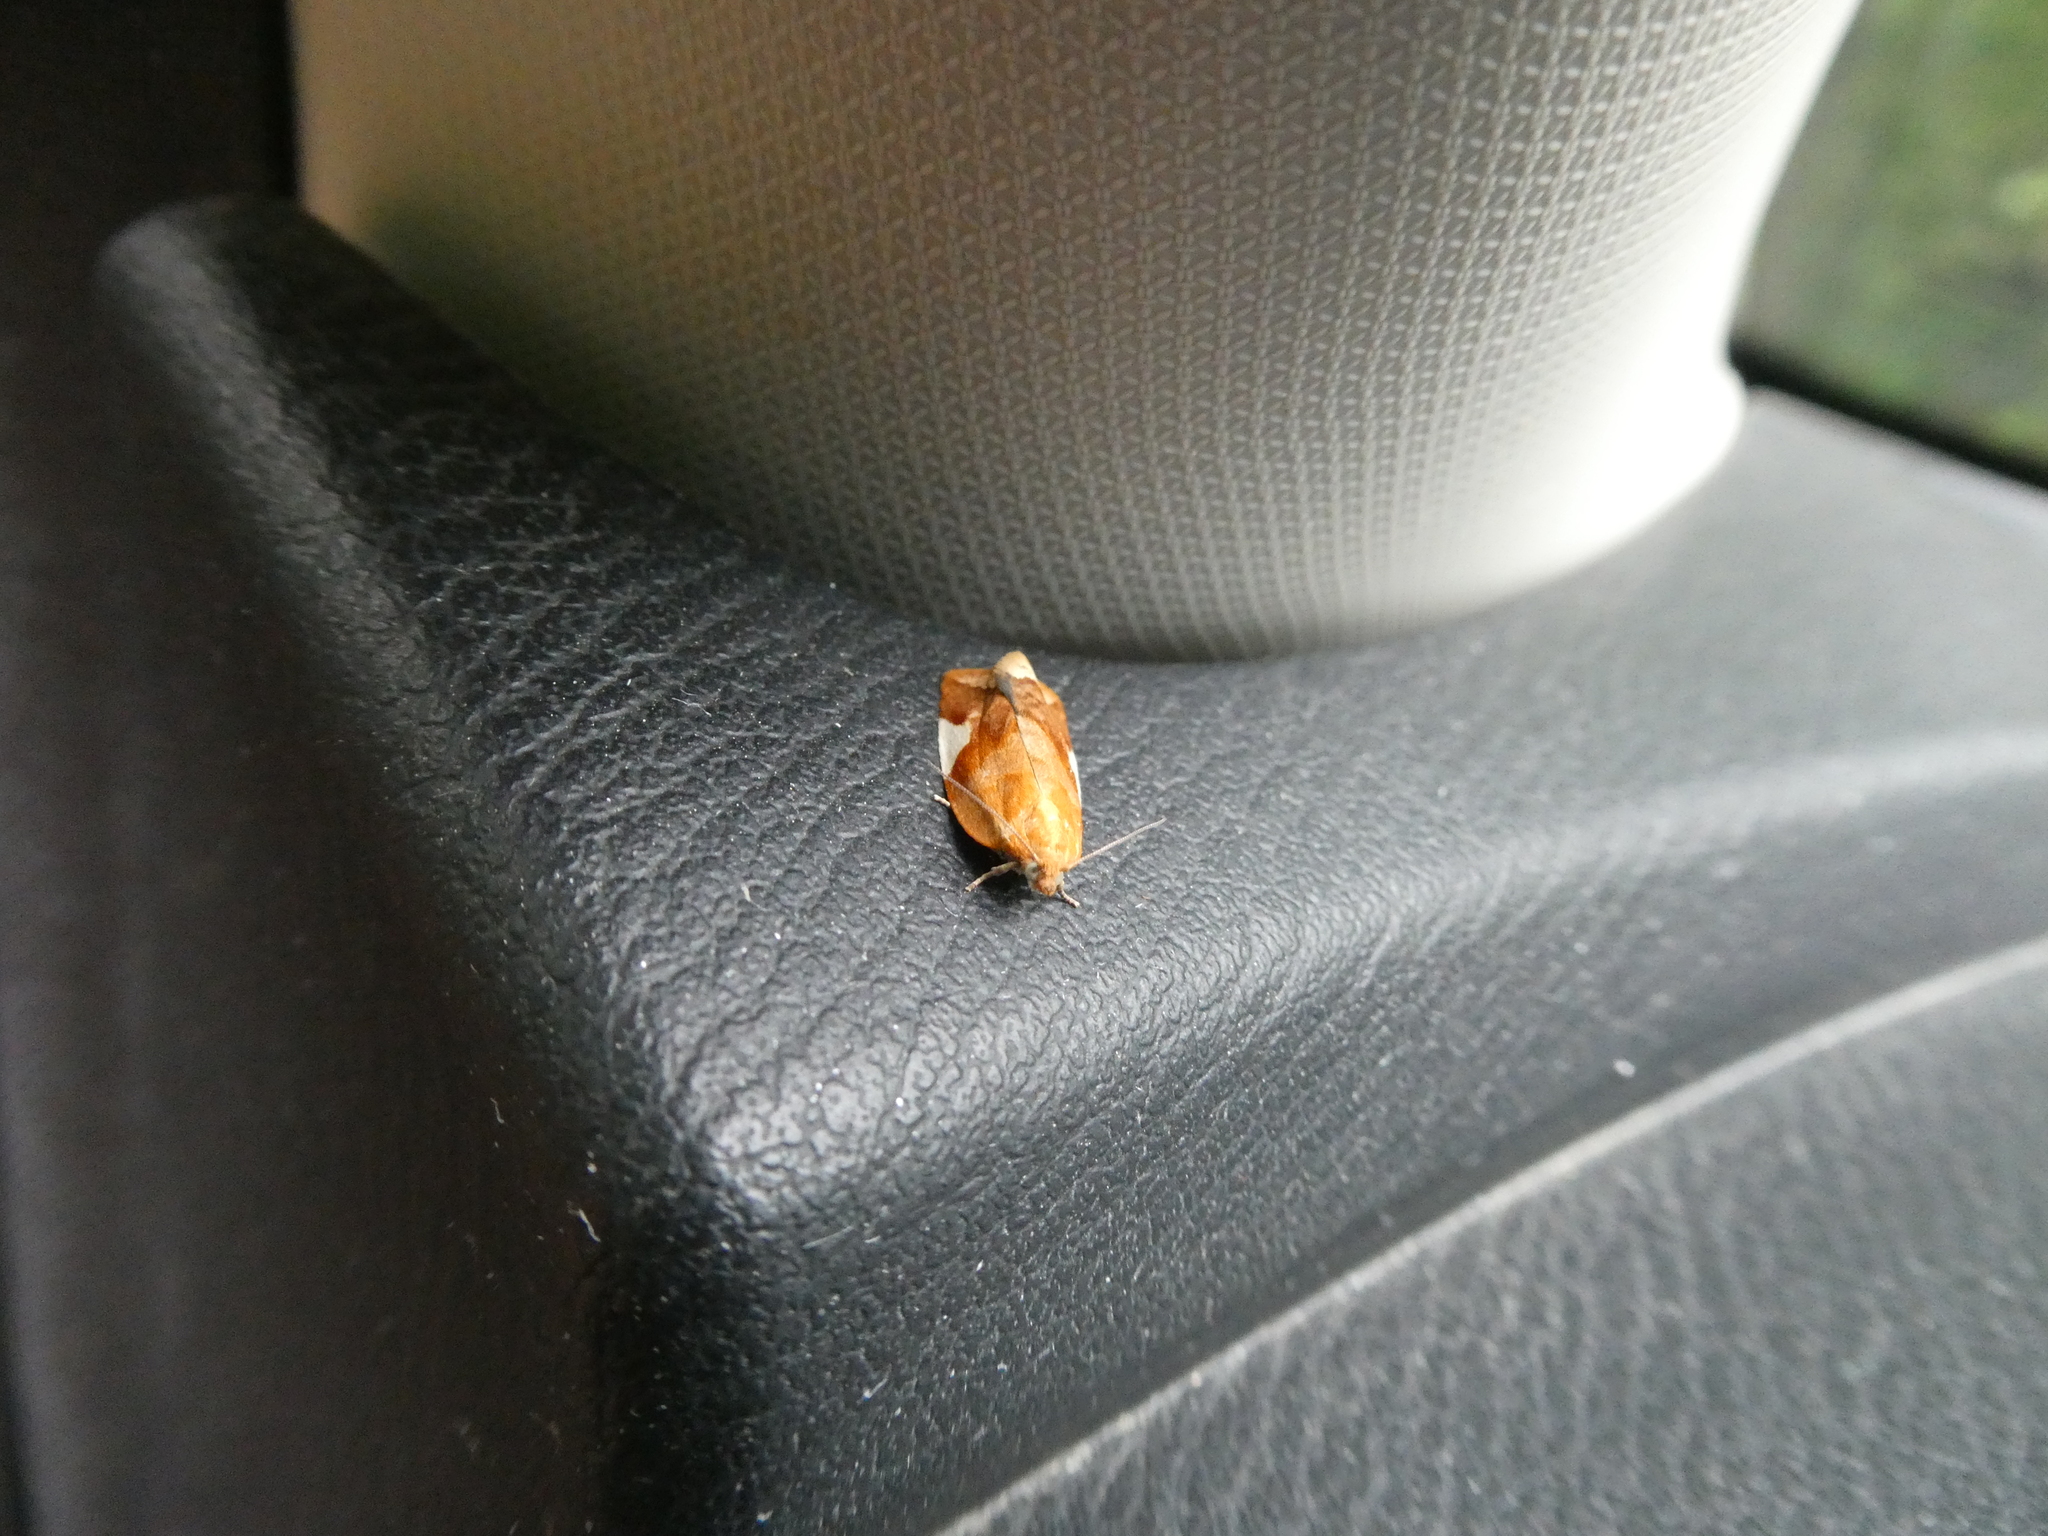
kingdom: Animalia
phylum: Arthropoda
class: Insecta
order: Lepidoptera
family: Tortricidae
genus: Clepsis
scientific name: Clepsis persicana
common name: White triangle tortrix
